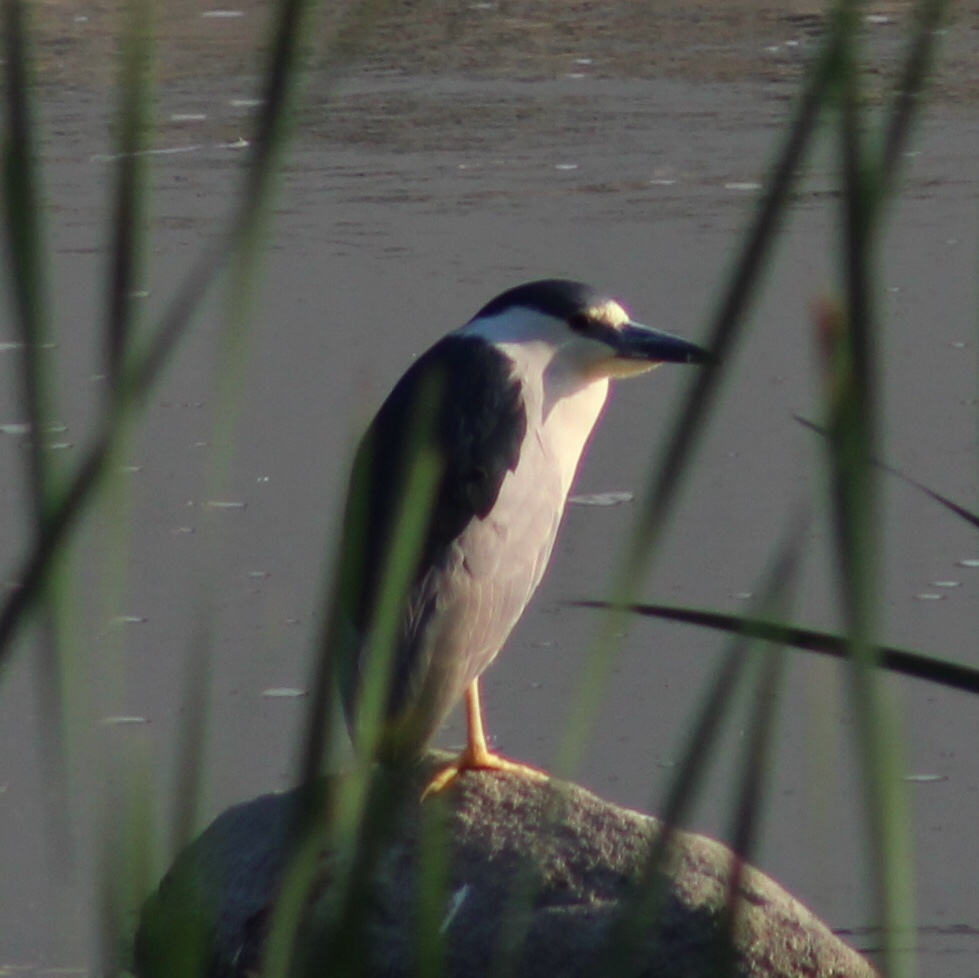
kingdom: Animalia
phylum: Chordata
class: Aves
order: Pelecaniformes
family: Ardeidae
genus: Nycticorax
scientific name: Nycticorax nycticorax
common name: Black-crowned night heron
